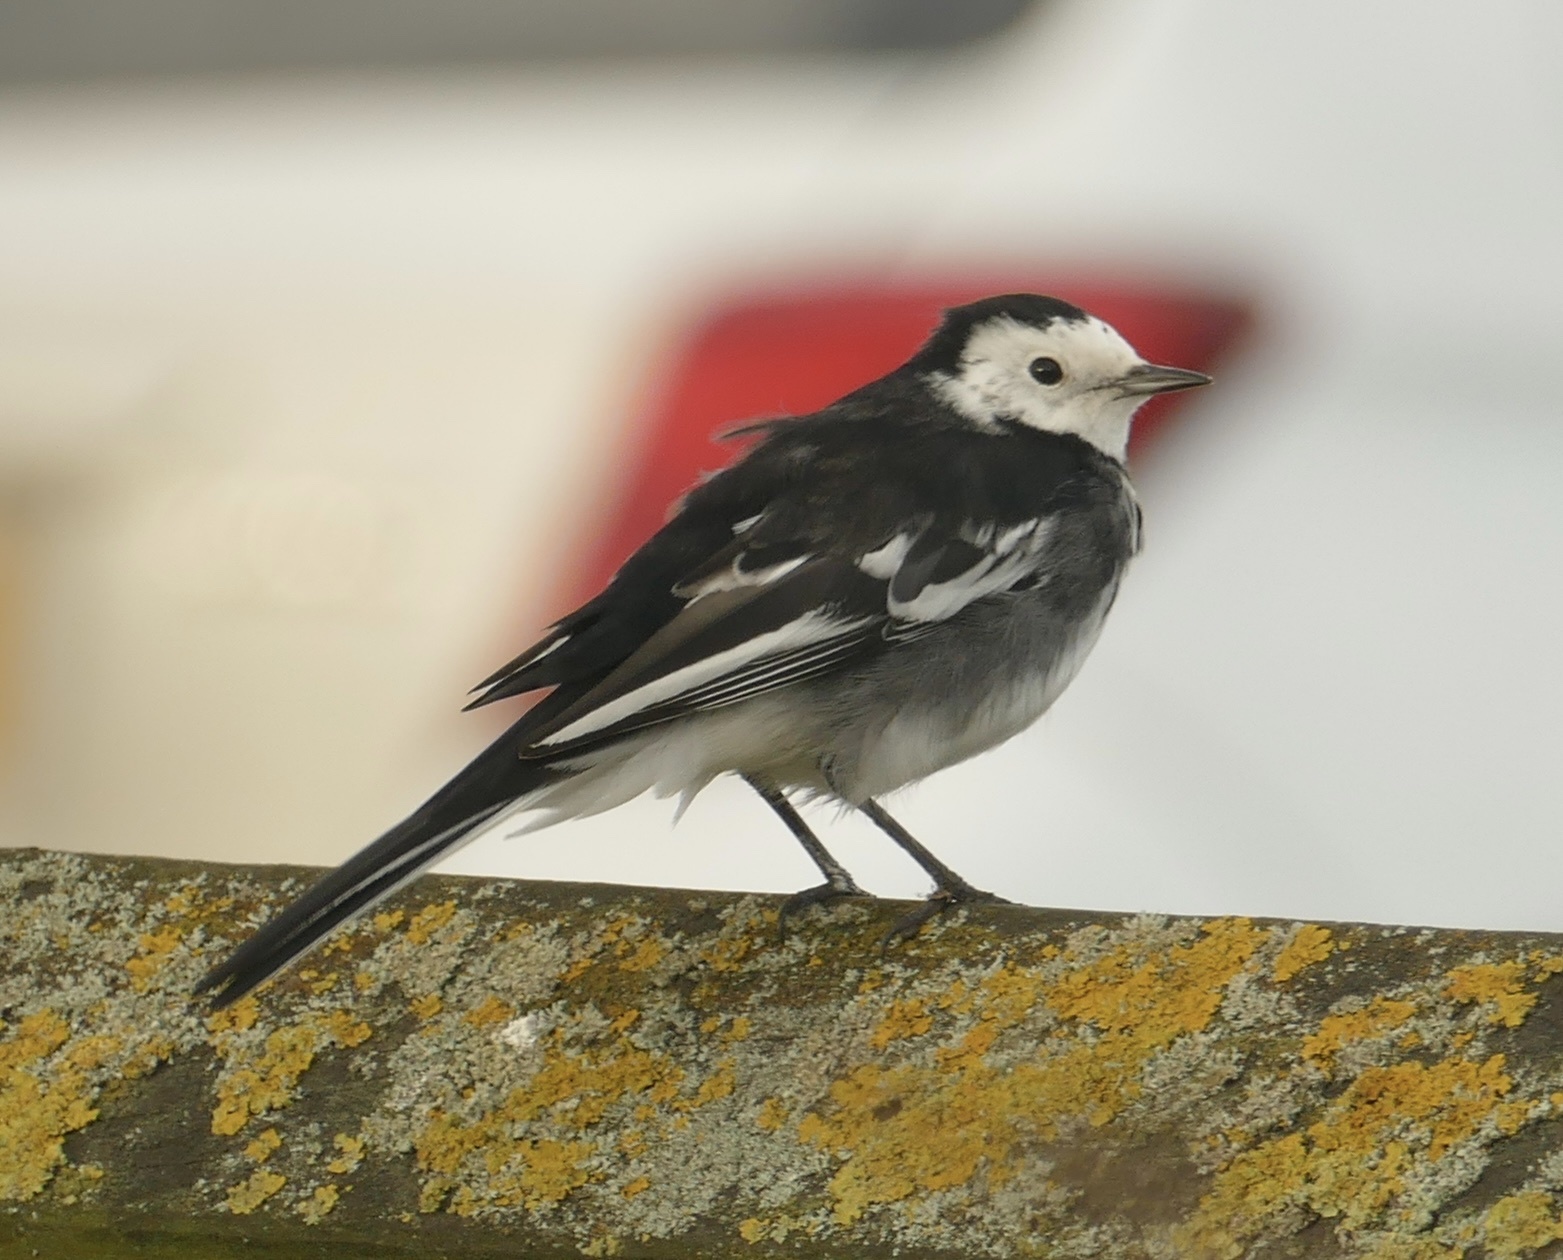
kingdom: Animalia
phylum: Chordata
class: Aves
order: Passeriformes
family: Motacillidae
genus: Motacilla
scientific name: Motacilla alba
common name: White wagtail
